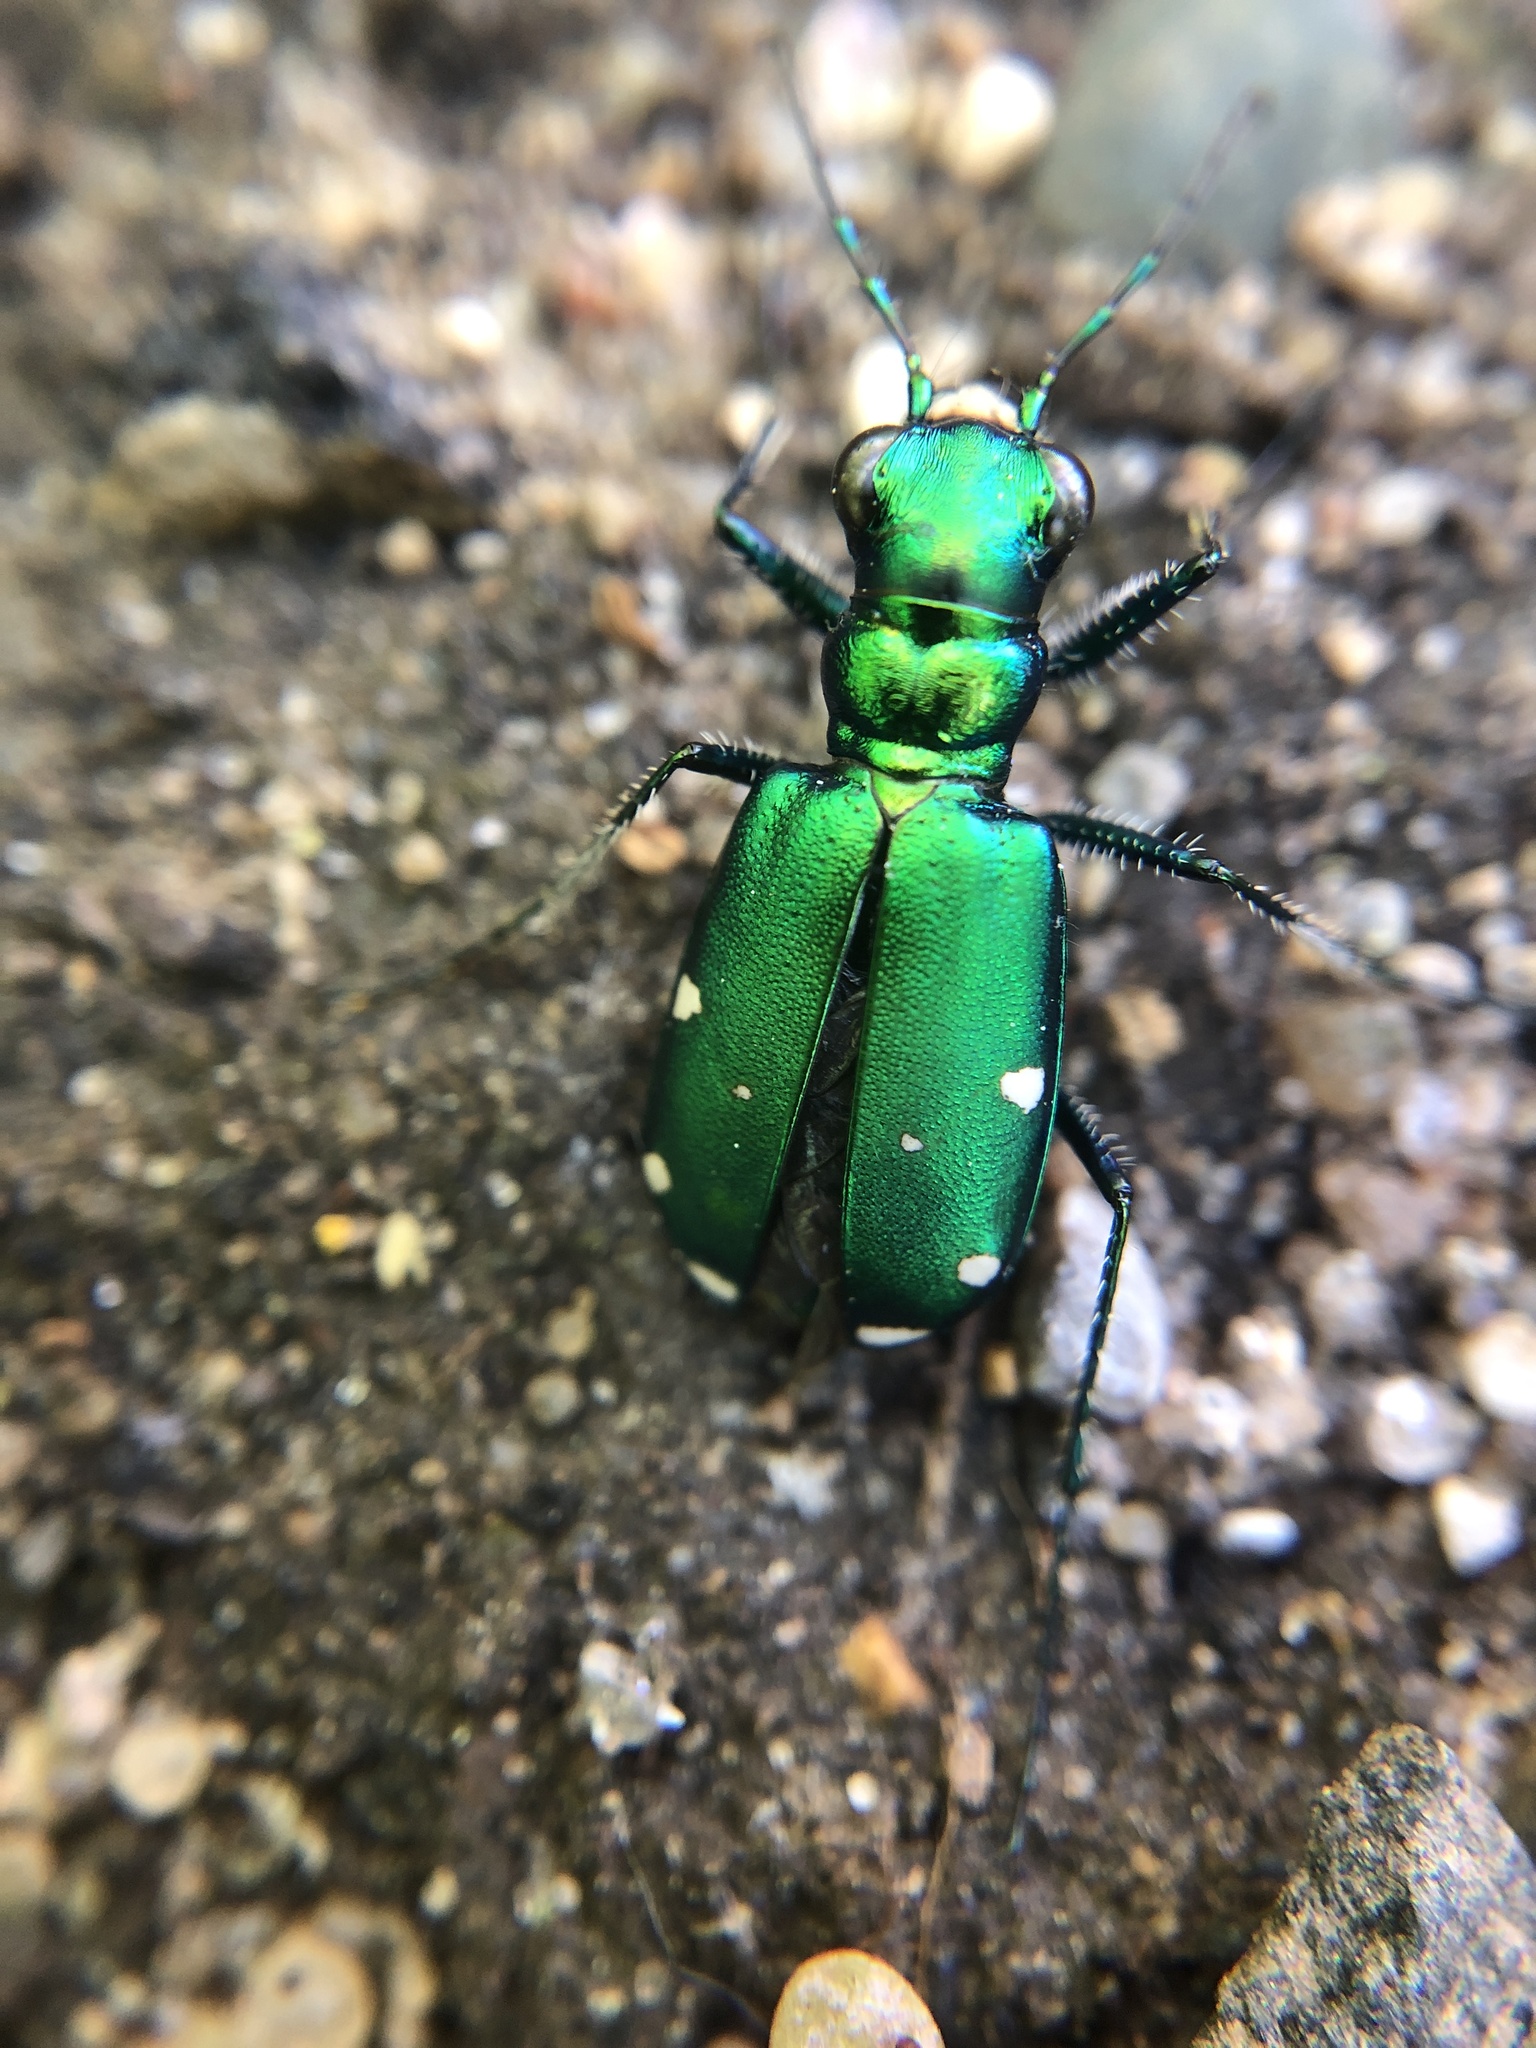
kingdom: Animalia
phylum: Arthropoda
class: Insecta
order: Coleoptera
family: Carabidae
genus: Cicindela
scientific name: Cicindela sexguttata
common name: Six-spotted tiger beetle
